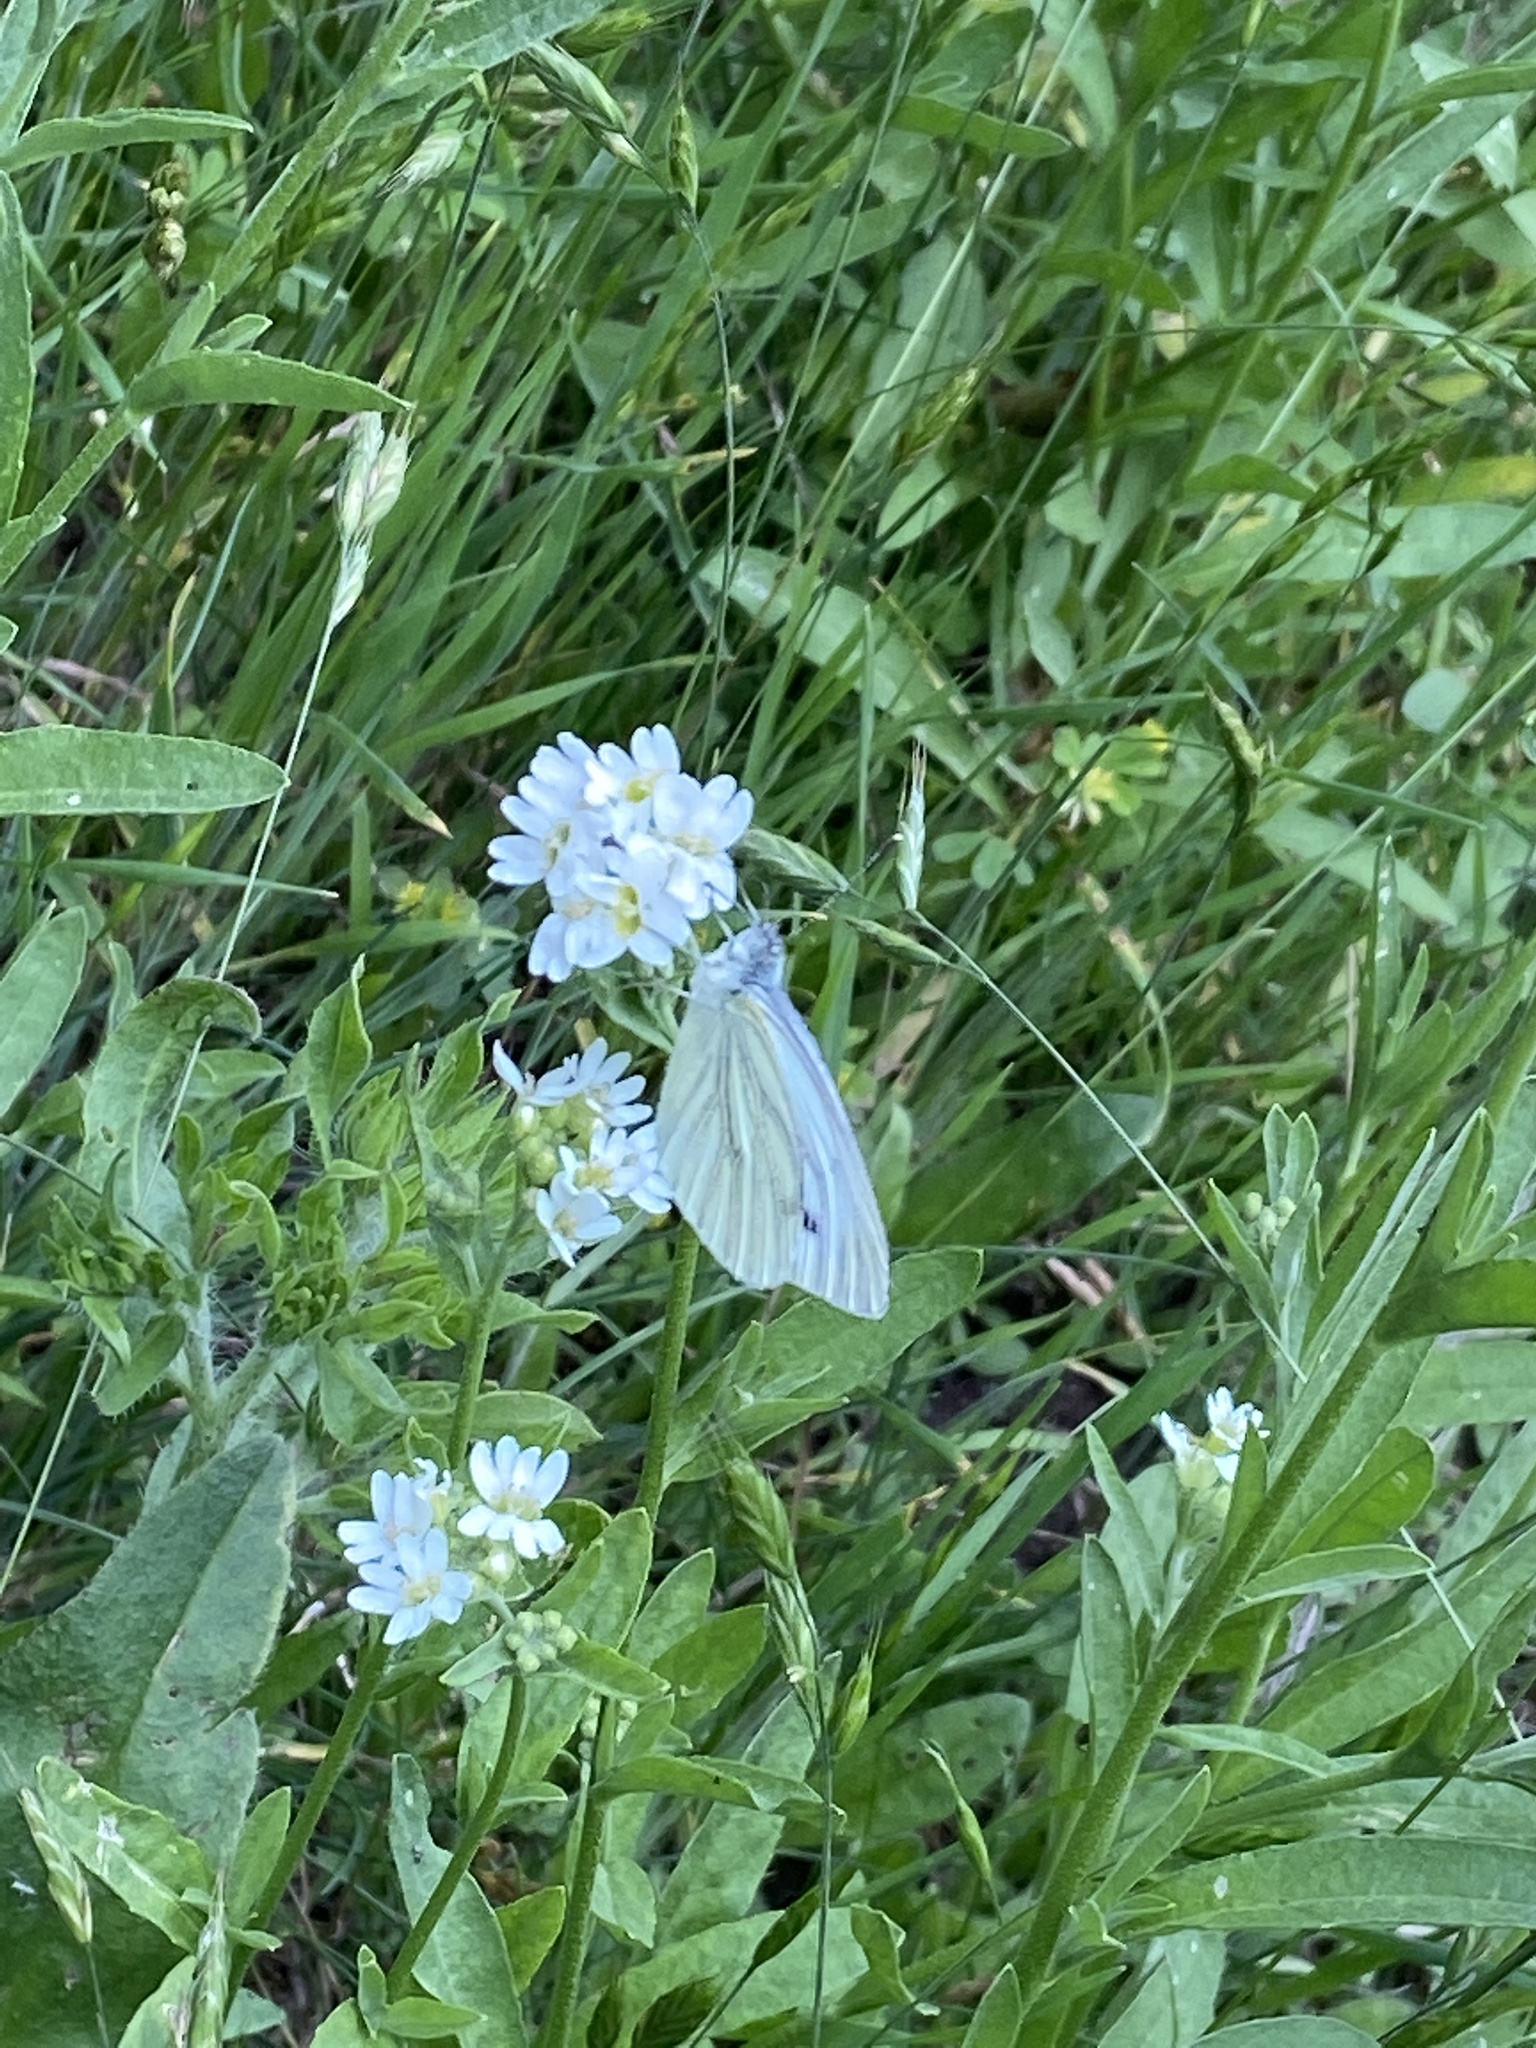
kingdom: Animalia
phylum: Arthropoda
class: Insecta
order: Lepidoptera
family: Pieridae
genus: Pieris
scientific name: Pieris napi
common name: Green-veined white
